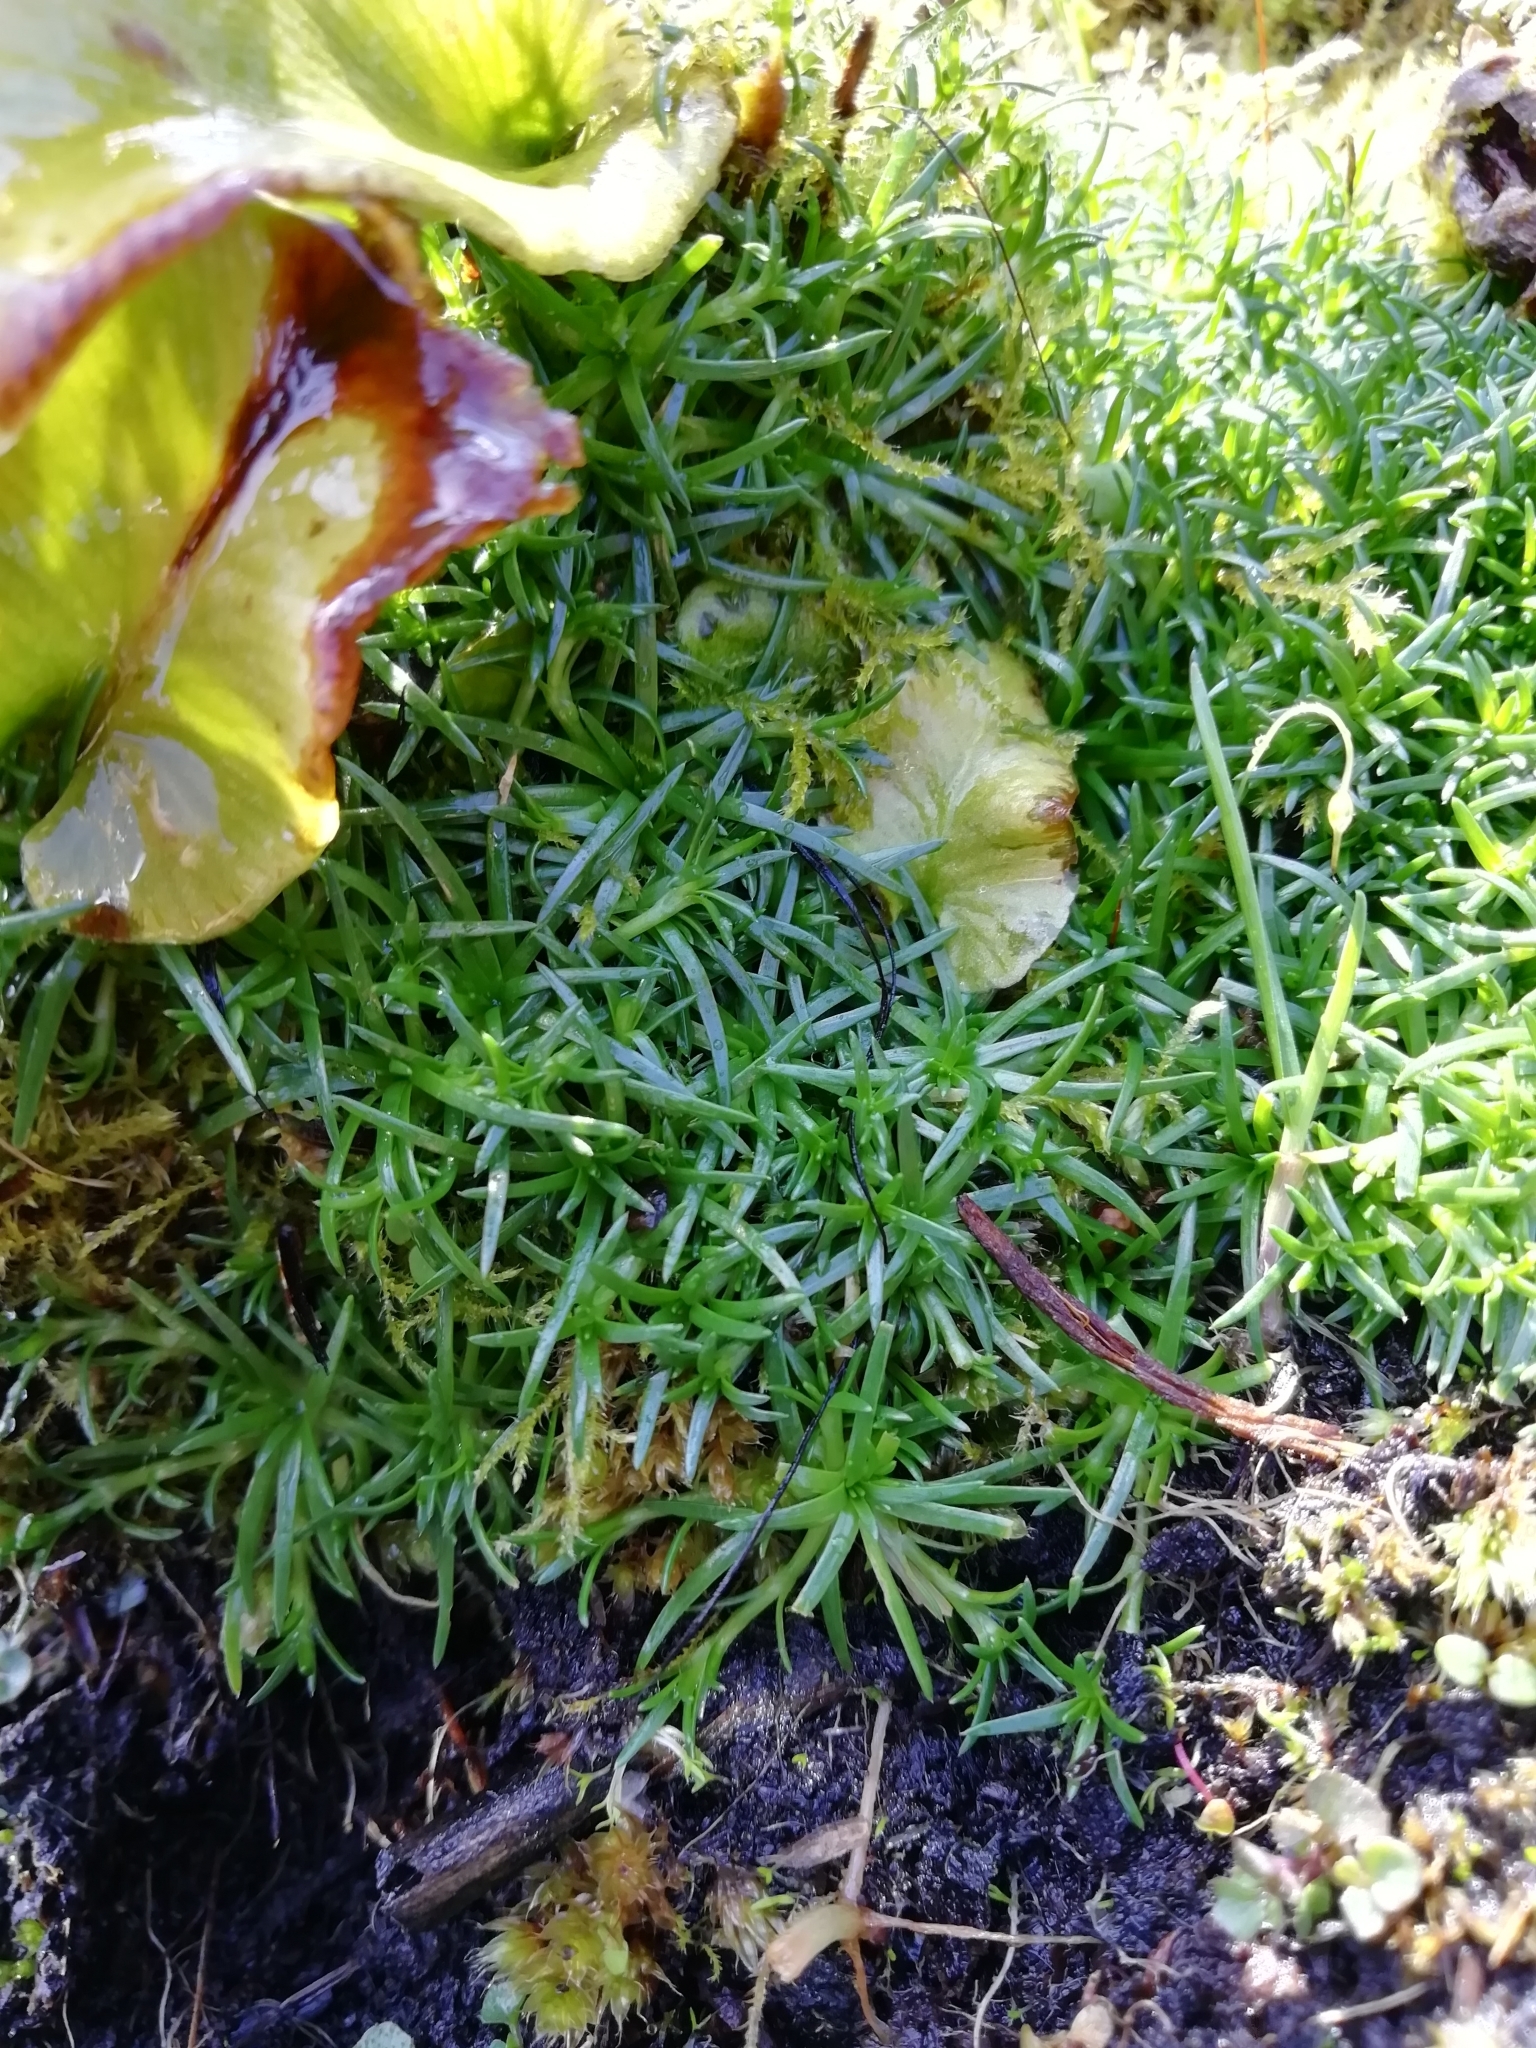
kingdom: Plantae
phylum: Tracheophyta
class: Magnoliopsida
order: Caryophyllales
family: Caryophyllaceae
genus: Sagina
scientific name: Sagina procumbens
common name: Procumbent pearlwort
